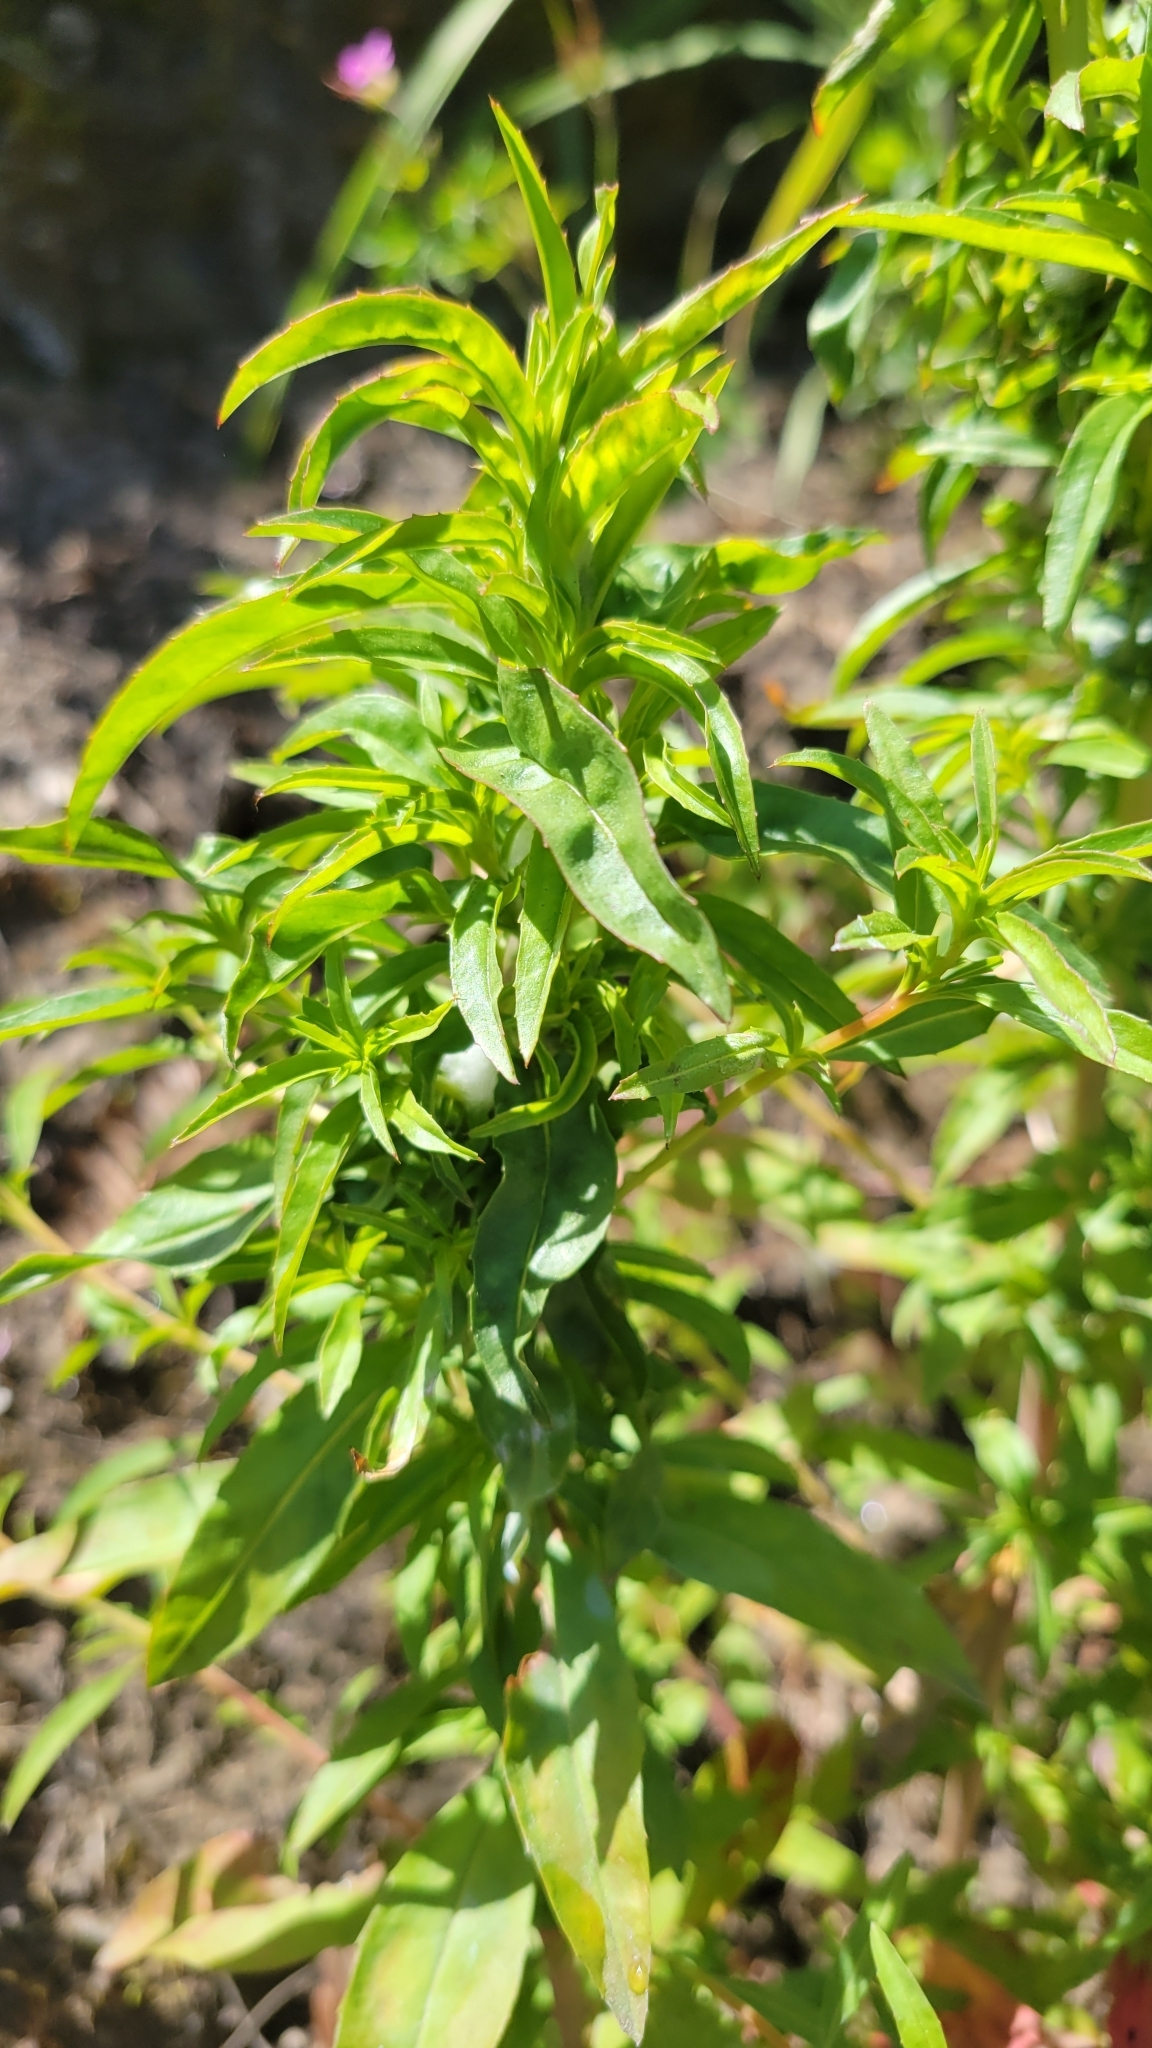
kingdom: Plantae
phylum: Tracheophyta
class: Magnoliopsida
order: Myrtales
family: Onagraceae
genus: Epilobium
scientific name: Epilobium brachycarpum
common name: Annual willowherb
